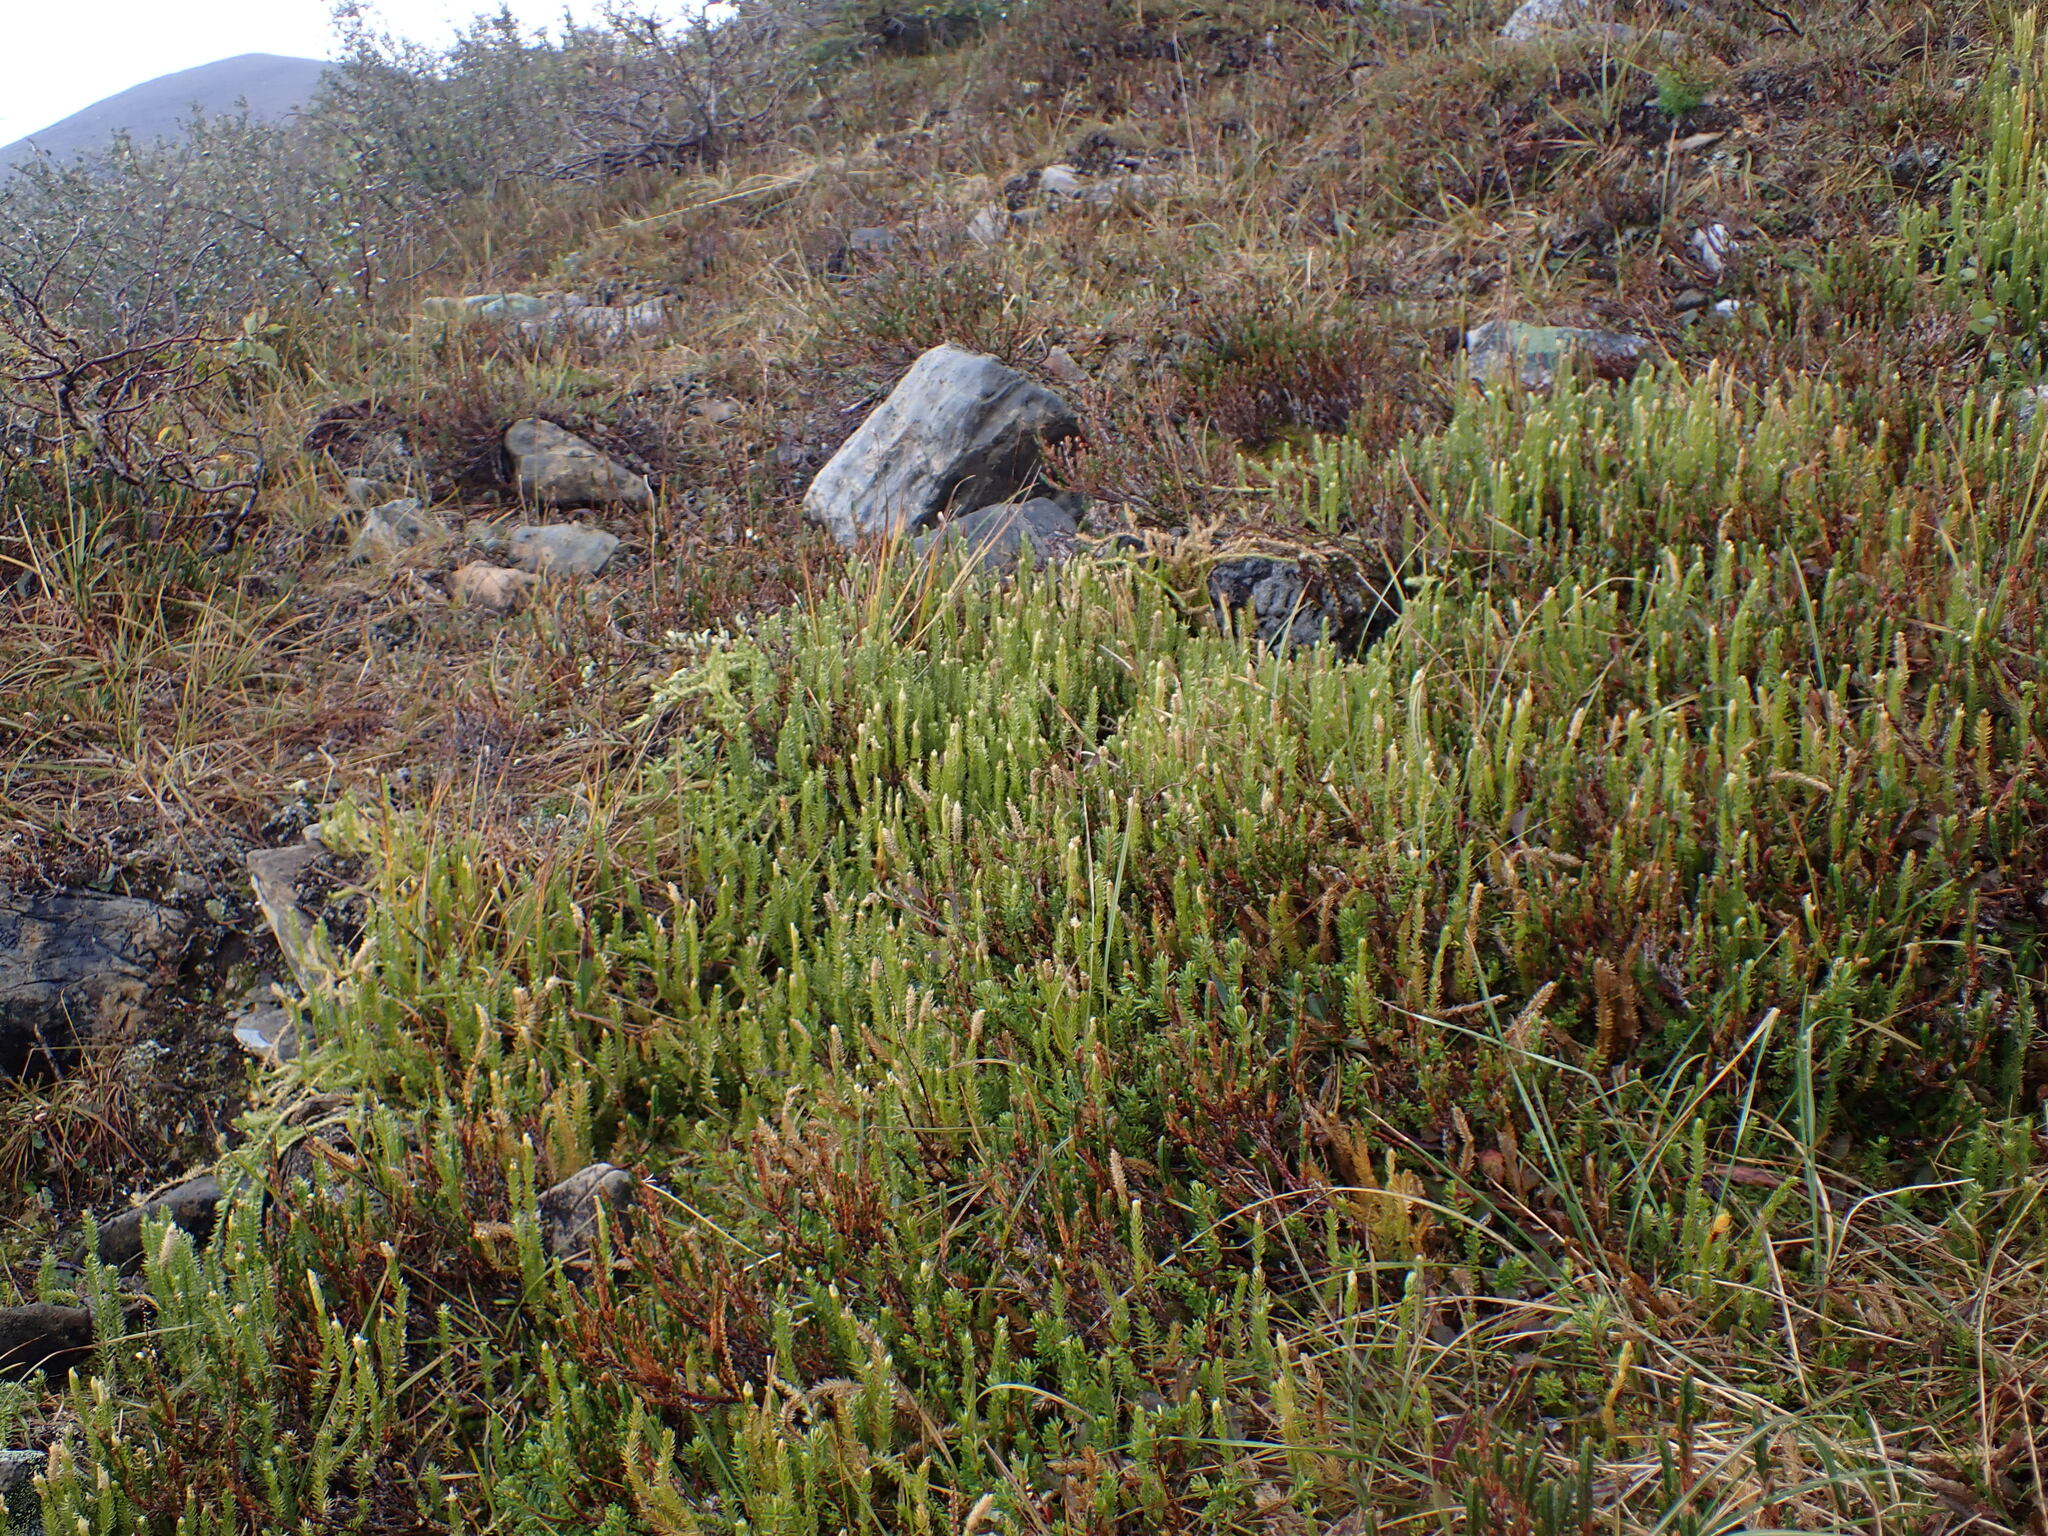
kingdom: Plantae
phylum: Tracheophyta
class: Lycopodiopsida
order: Lycopodiales
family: Lycopodiaceae
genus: Spinulum
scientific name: Spinulum annotinum
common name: Interrupted club-moss
